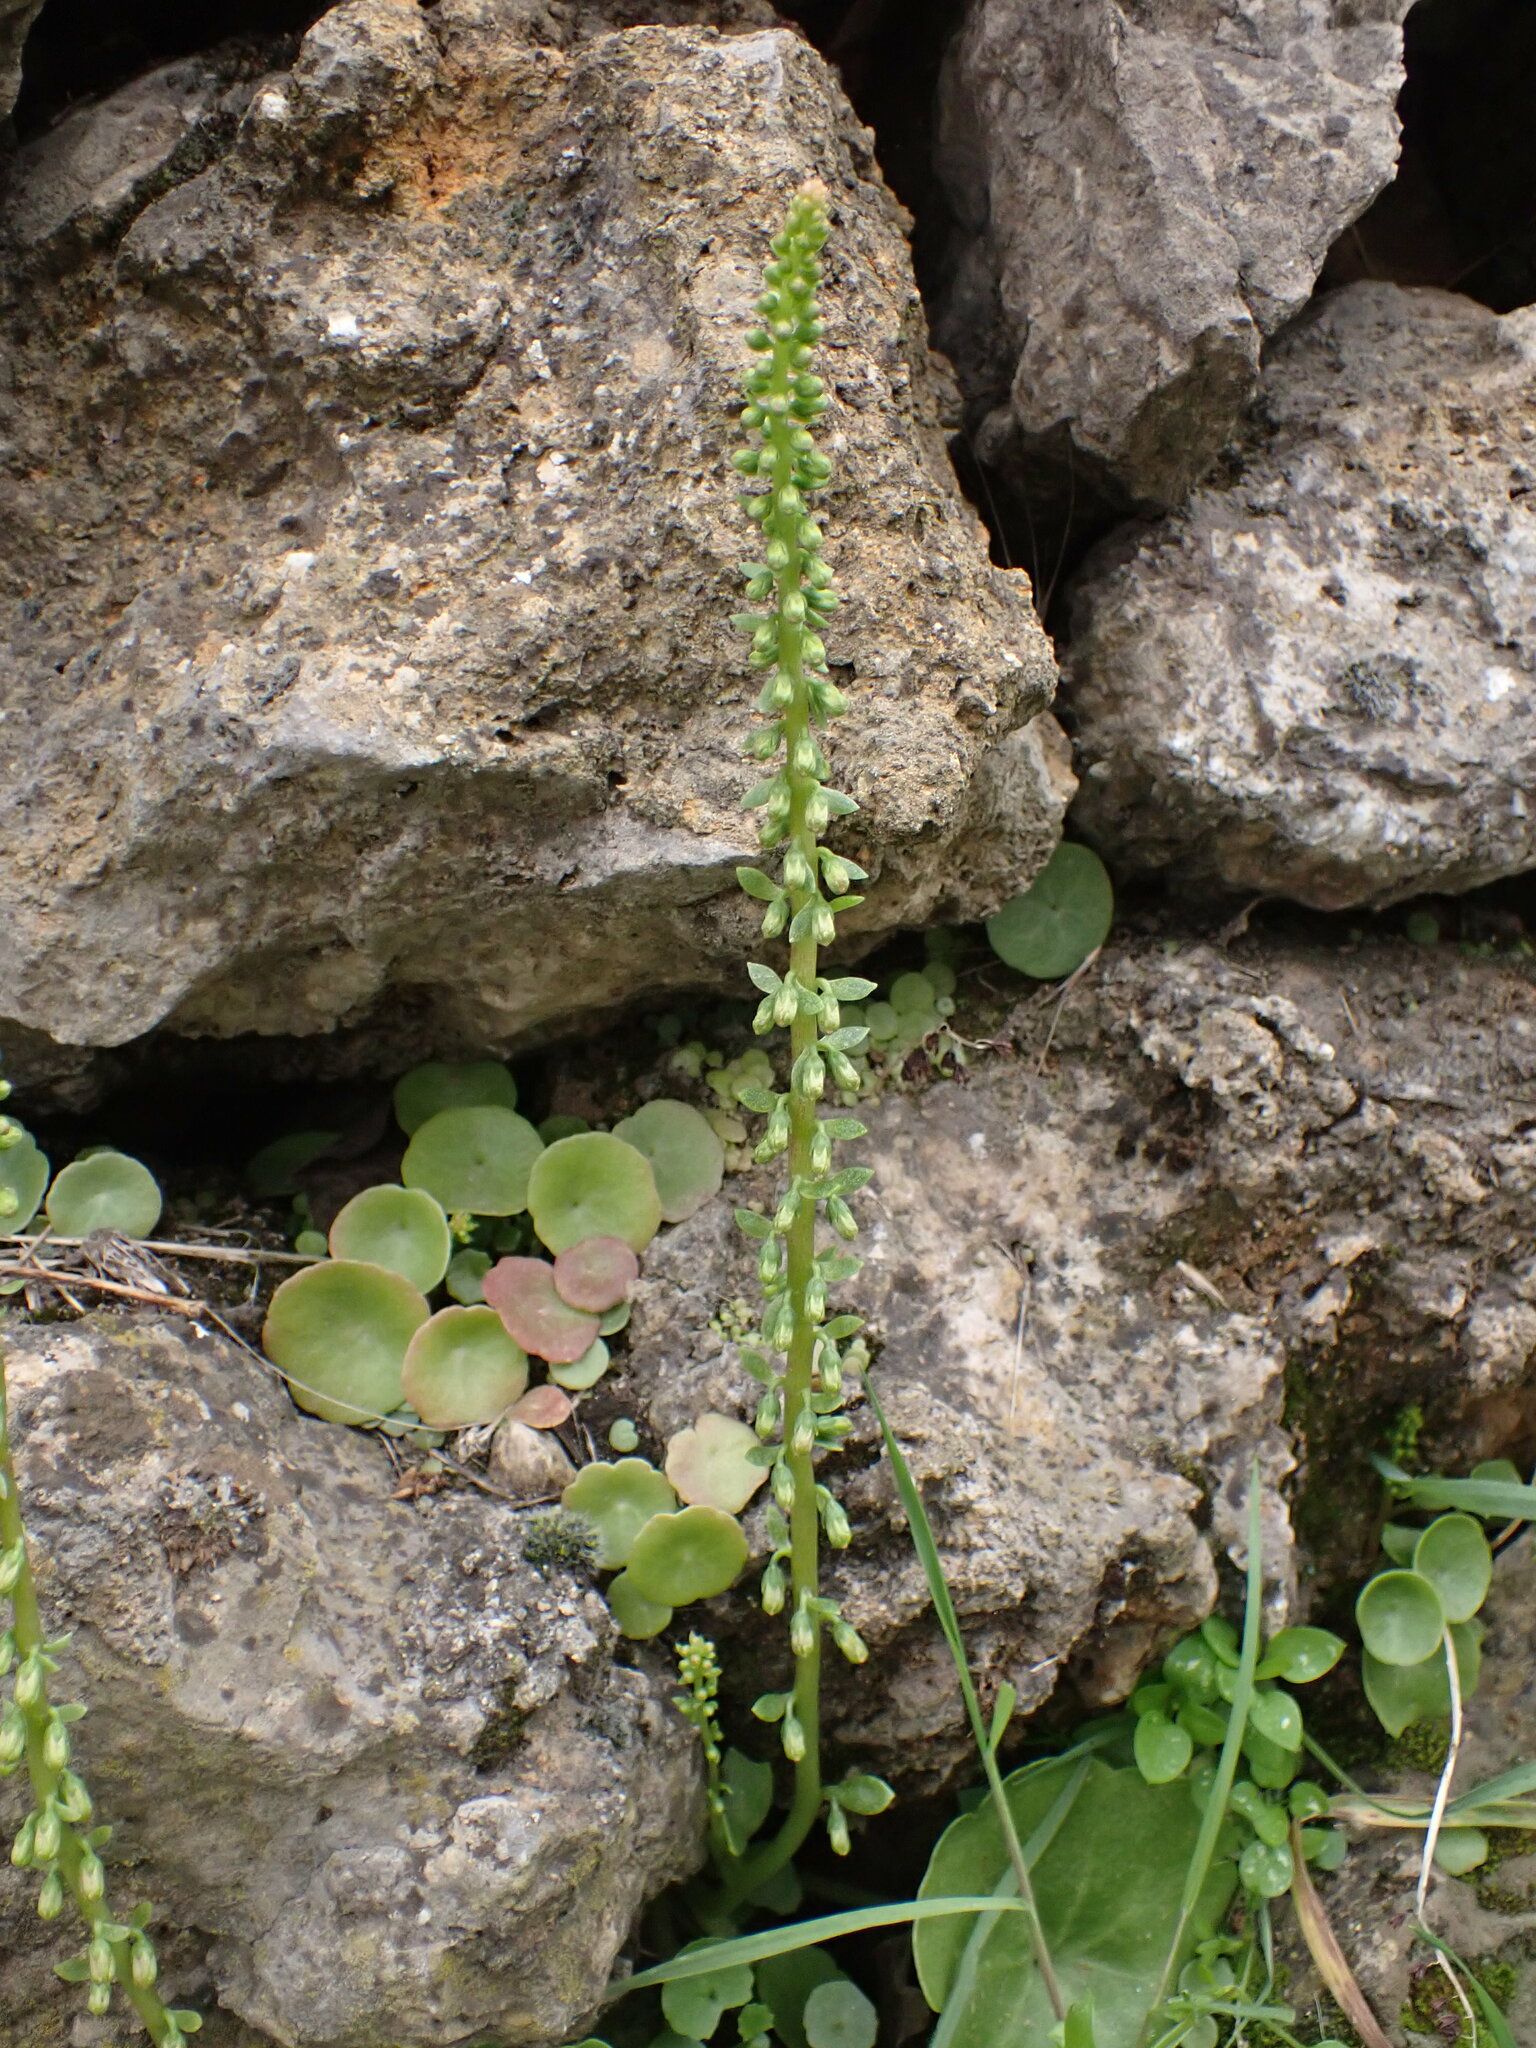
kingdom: Plantae
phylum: Tracheophyta
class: Magnoliopsida
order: Saxifragales
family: Crassulaceae
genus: Umbilicus
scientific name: Umbilicus rupestris
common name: Navelwort
